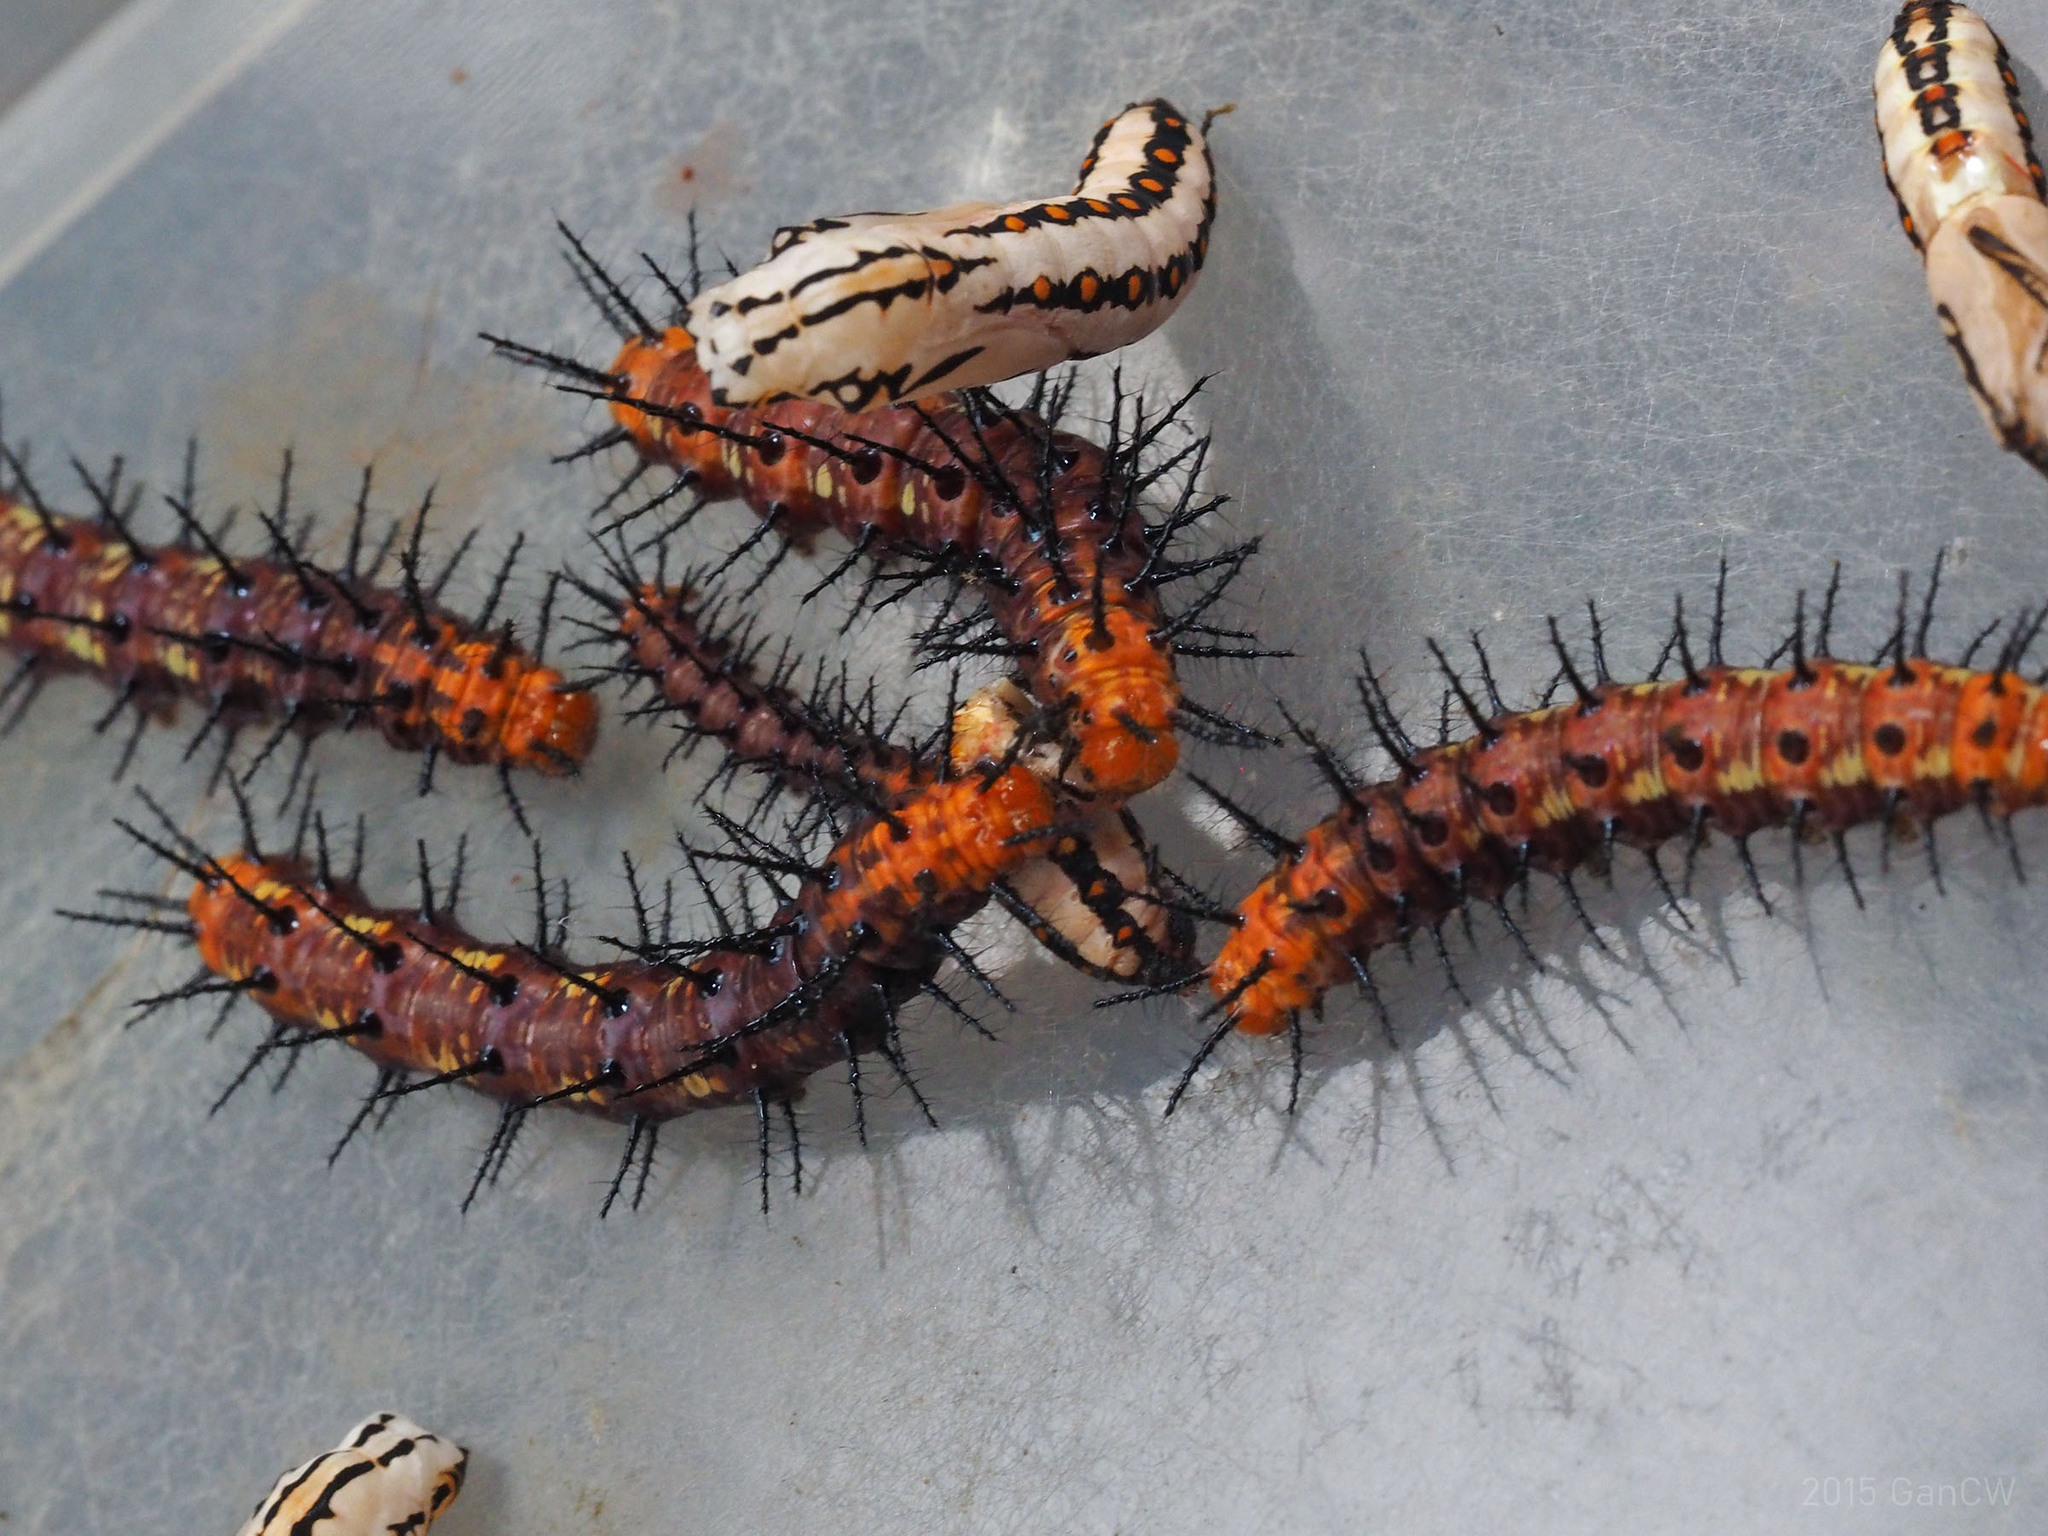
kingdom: Animalia
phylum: Arthropoda
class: Insecta
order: Lepidoptera
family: Nymphalidae
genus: Acraea
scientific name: Acraea terpsicore
